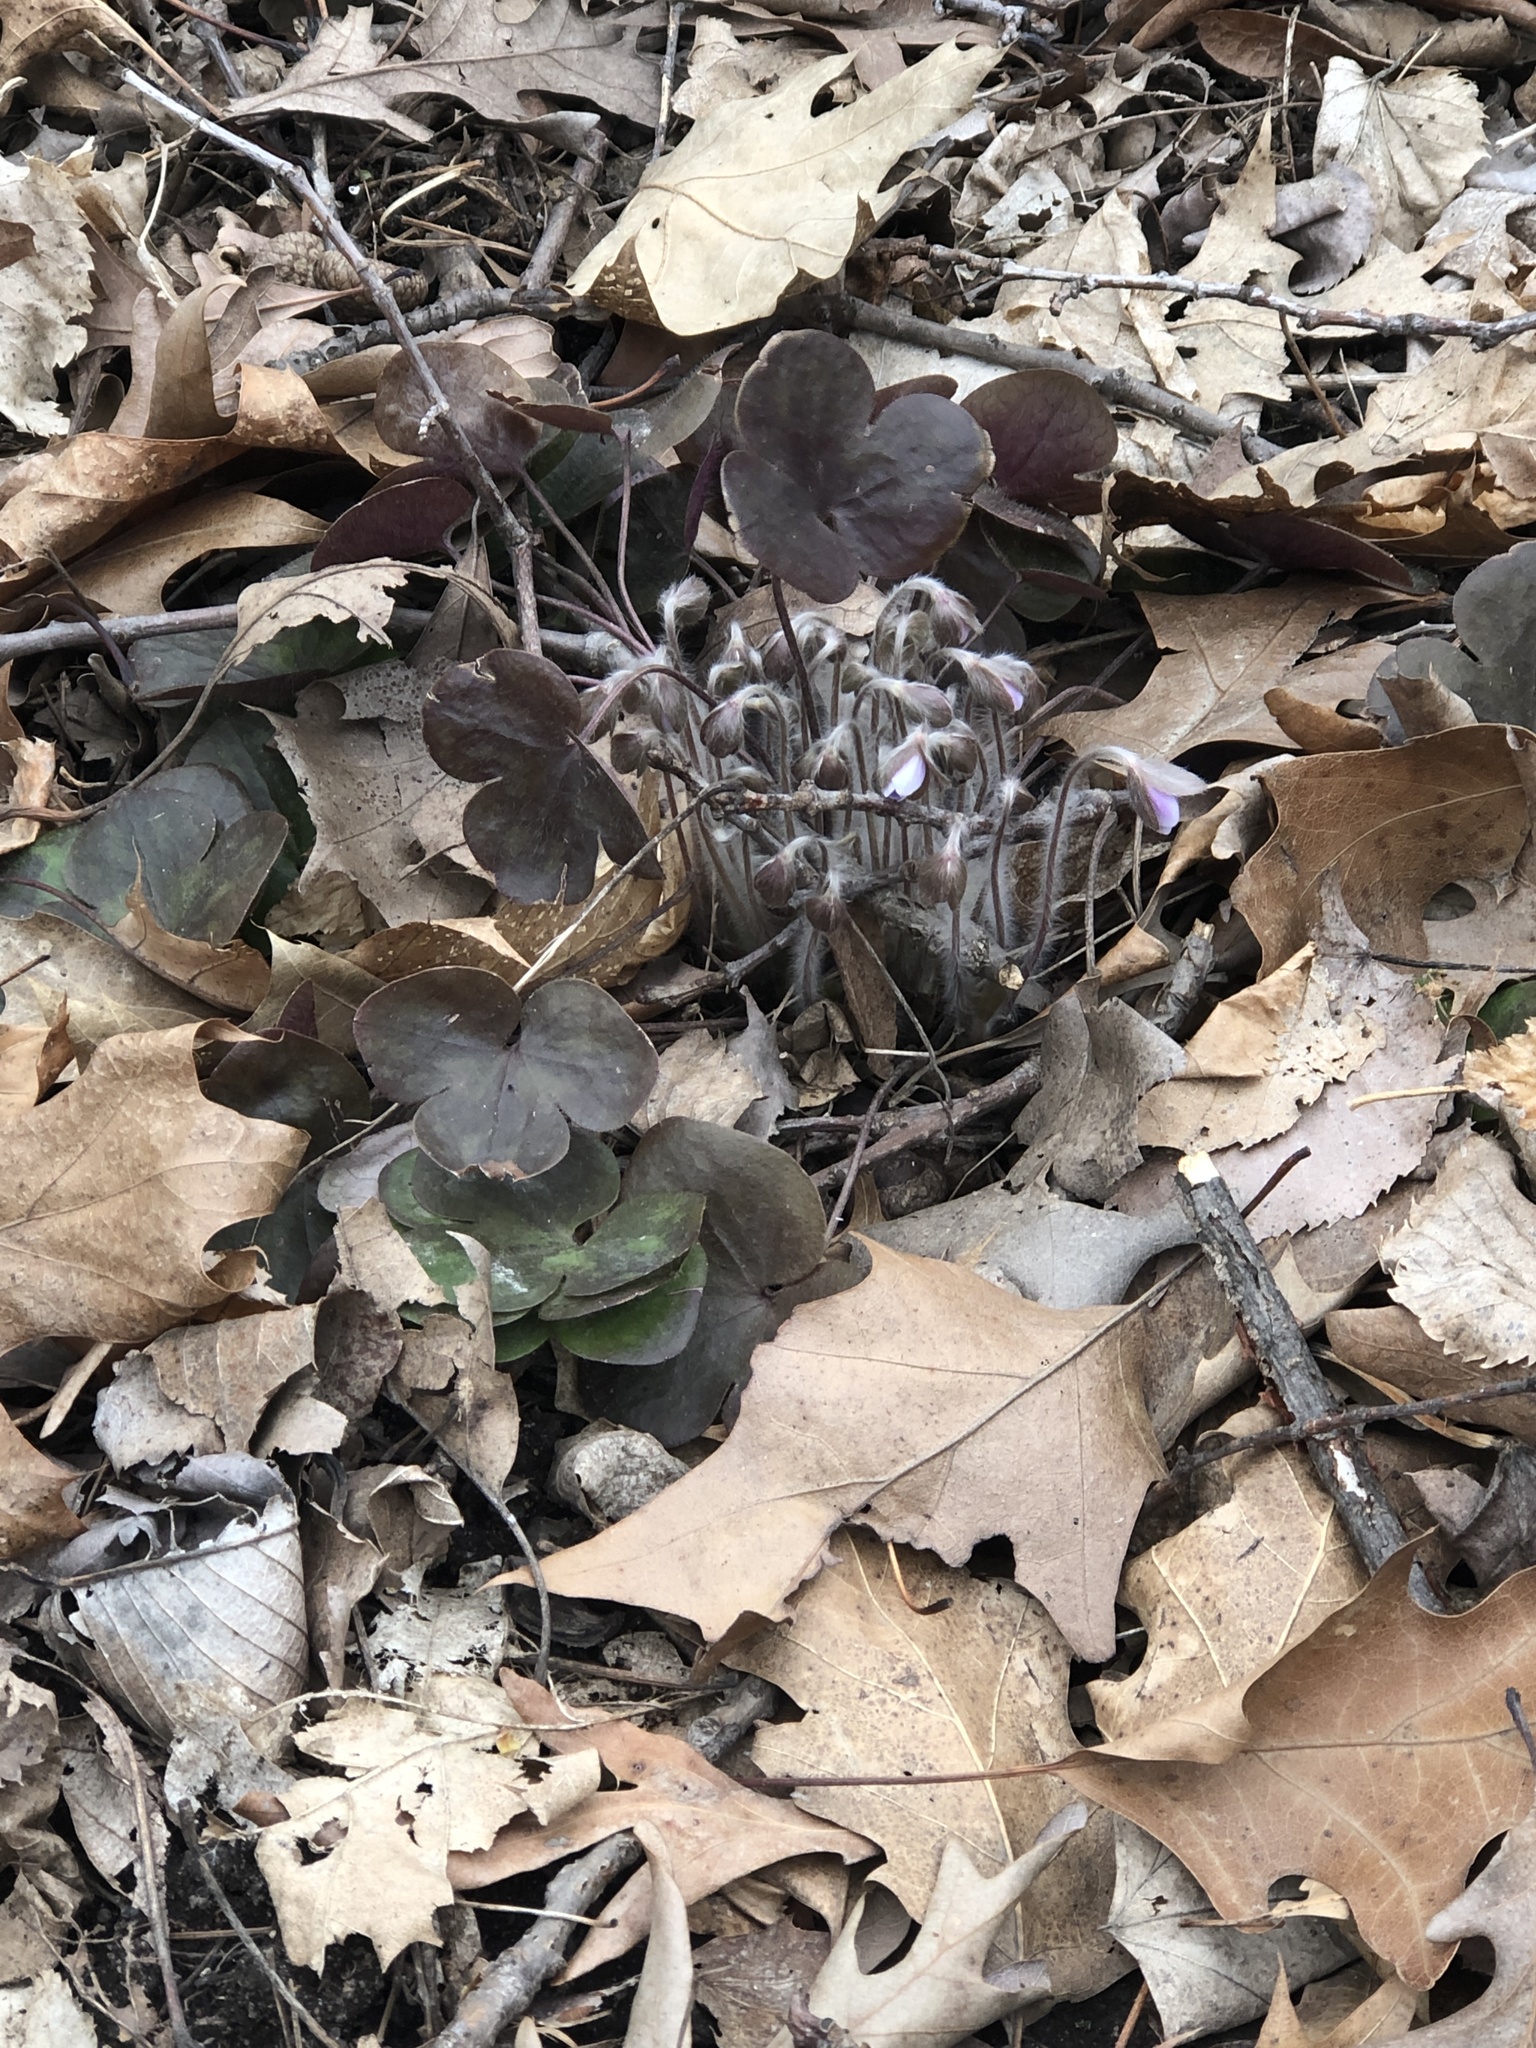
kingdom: Plantae
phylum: Tracheophyta
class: Magnoliopsida
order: Ranunculales
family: Ranunculaceae
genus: Hepatica
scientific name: Hepatica americana
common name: American hepatica
